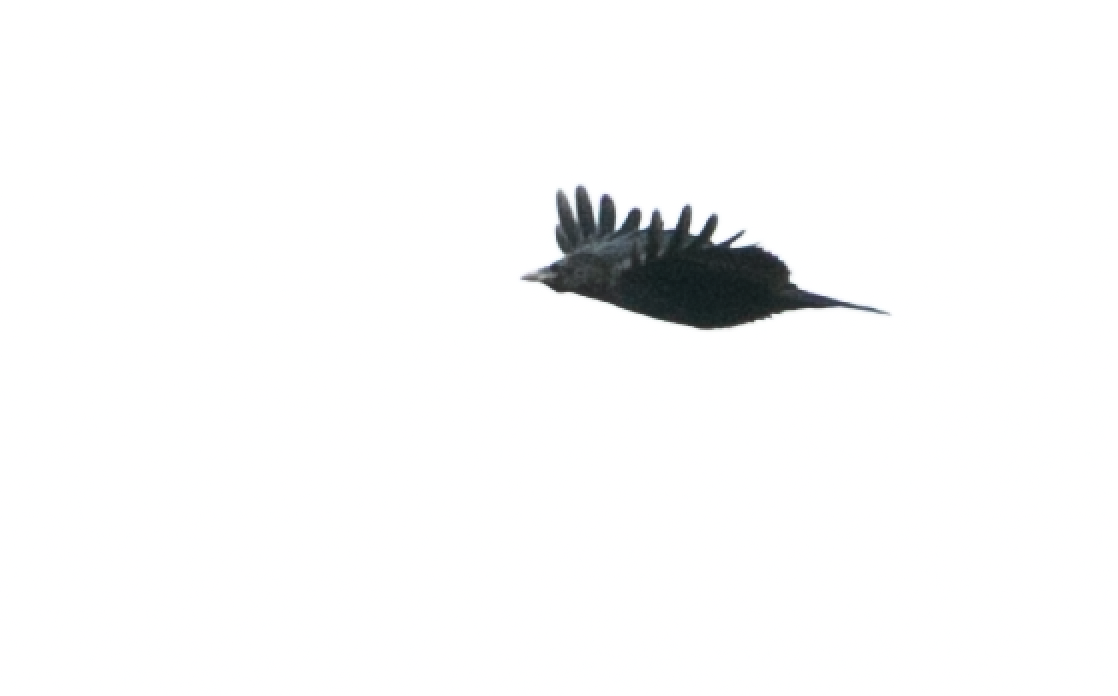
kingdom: Animalia
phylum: Chordata
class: Aves
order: Passeriformes
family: Corvidae
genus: Corvus
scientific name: Corvus corone
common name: Carrion crow
